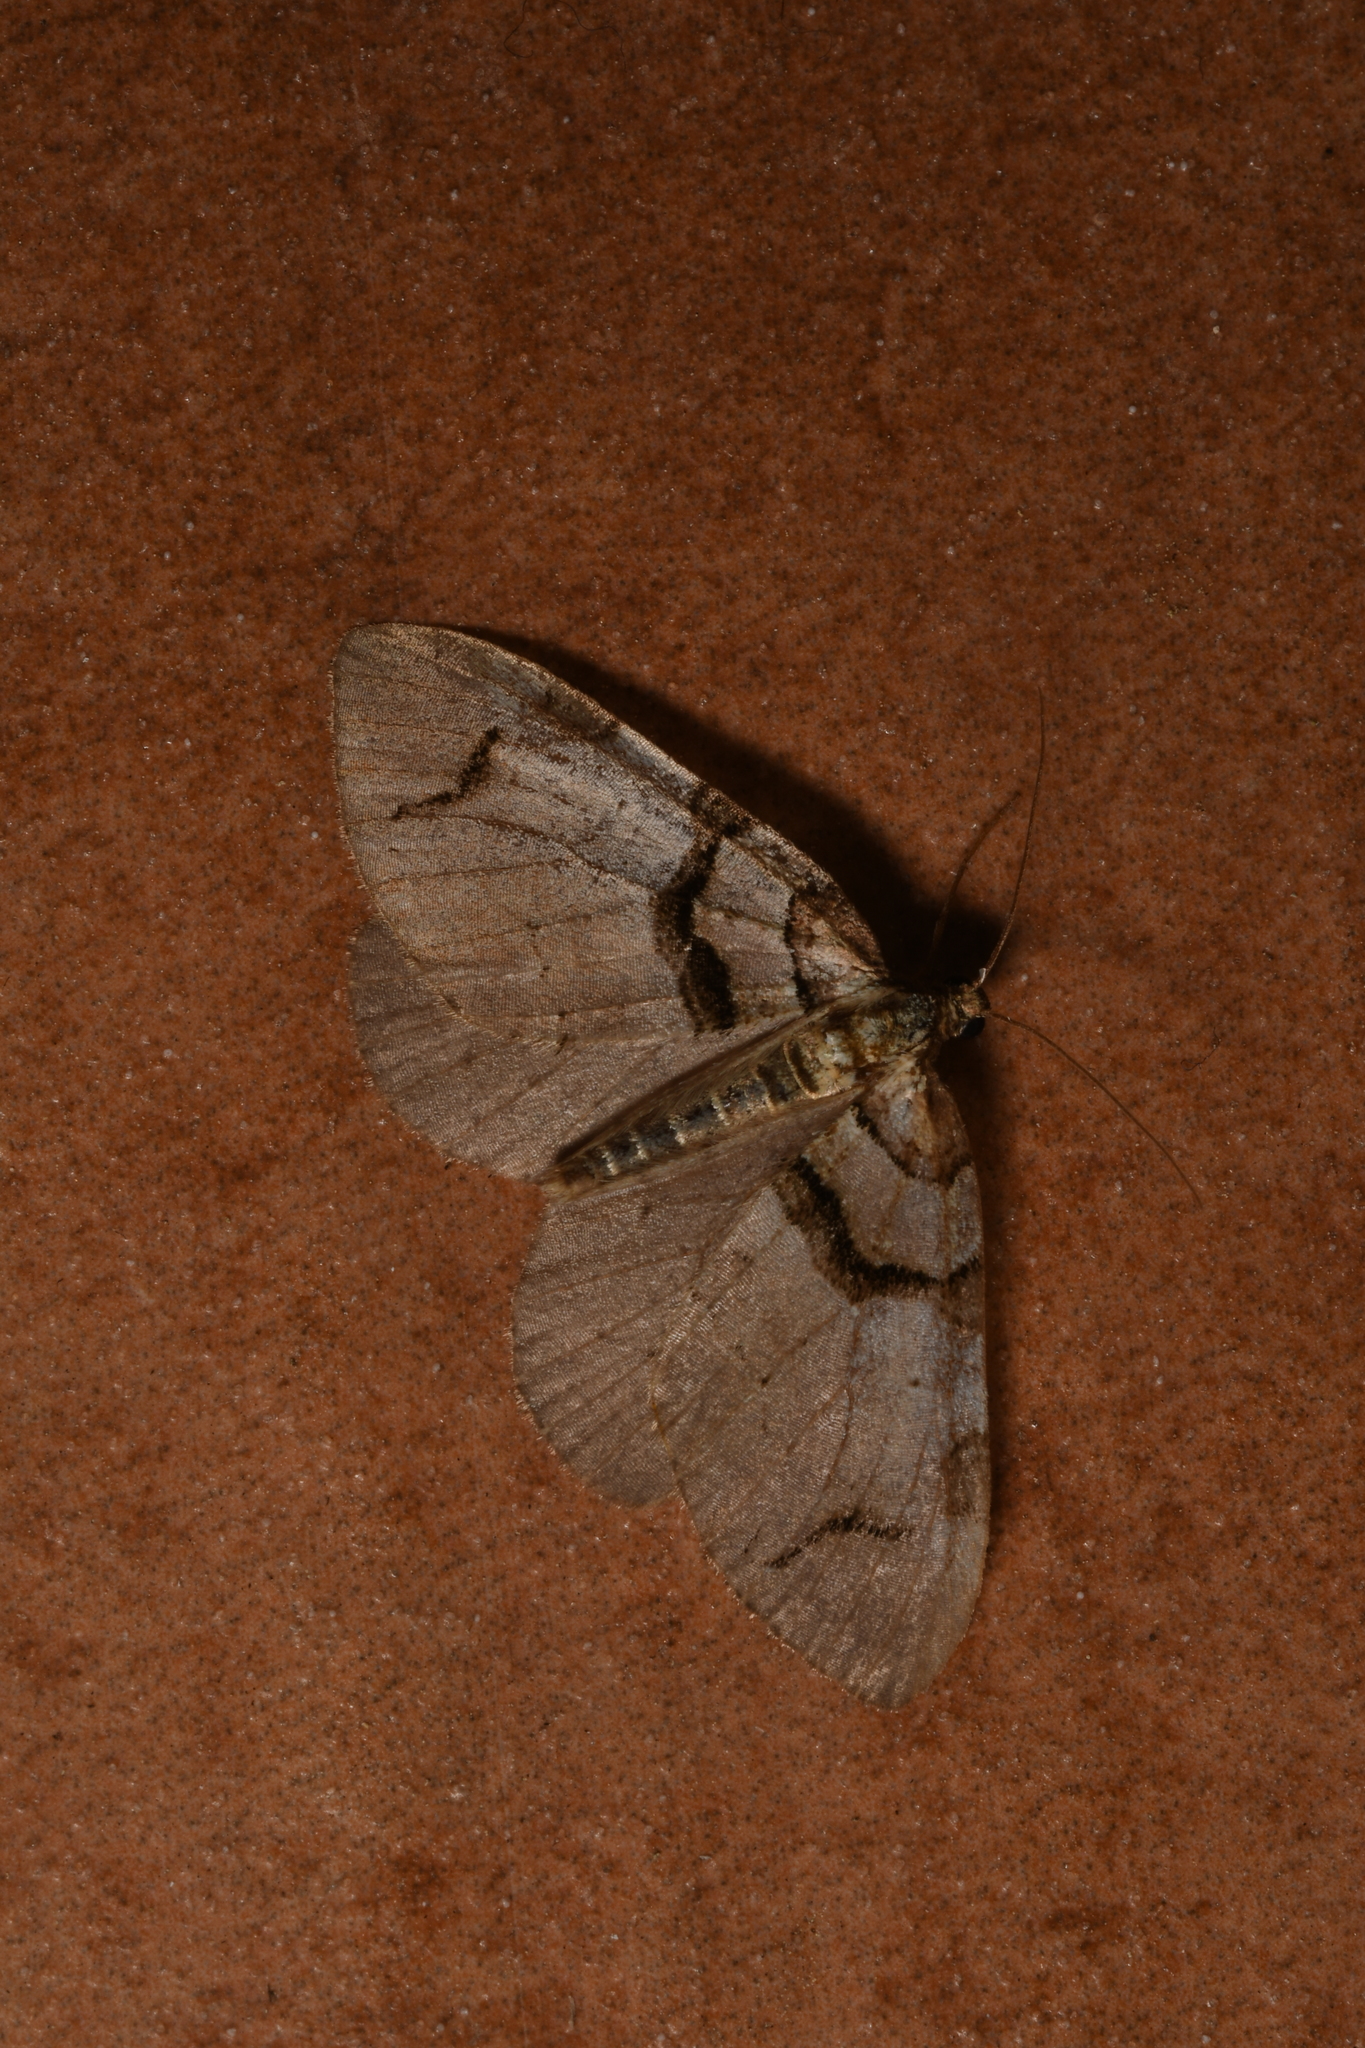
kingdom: Animalia
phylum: Arthropoda
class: Insecta
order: Lepidoptera
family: Geometridae
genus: Anticlea
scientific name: Anticlea derivata
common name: Streamer
